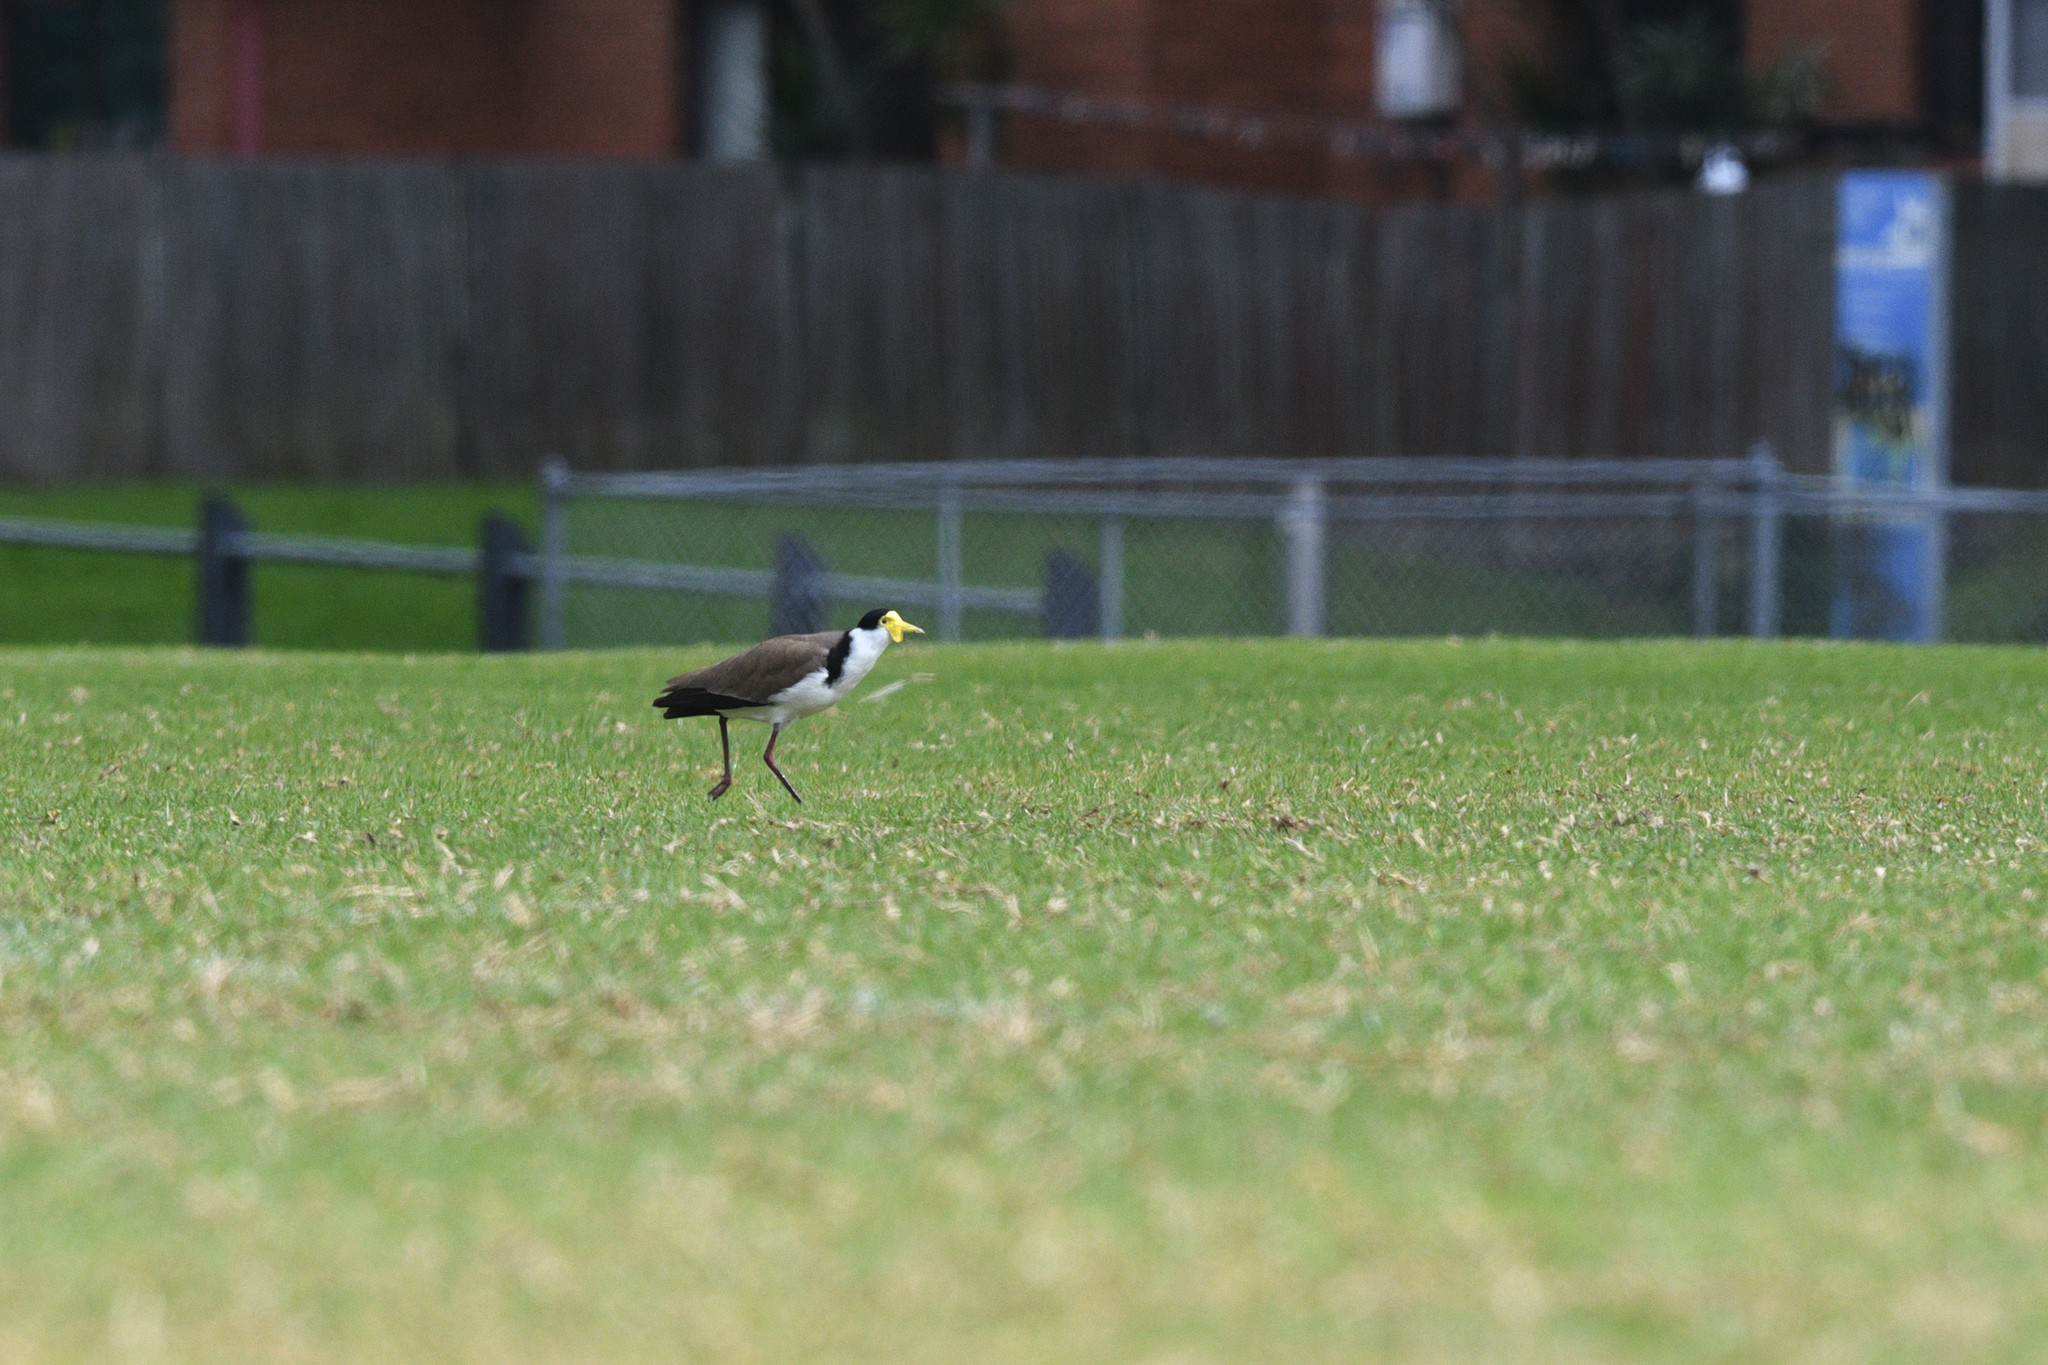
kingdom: Animalia
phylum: Chordata
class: Aves
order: Charadriiformes
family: Charadriidae
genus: Vanellus
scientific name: Vanellus miles
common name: Masked lapwing
